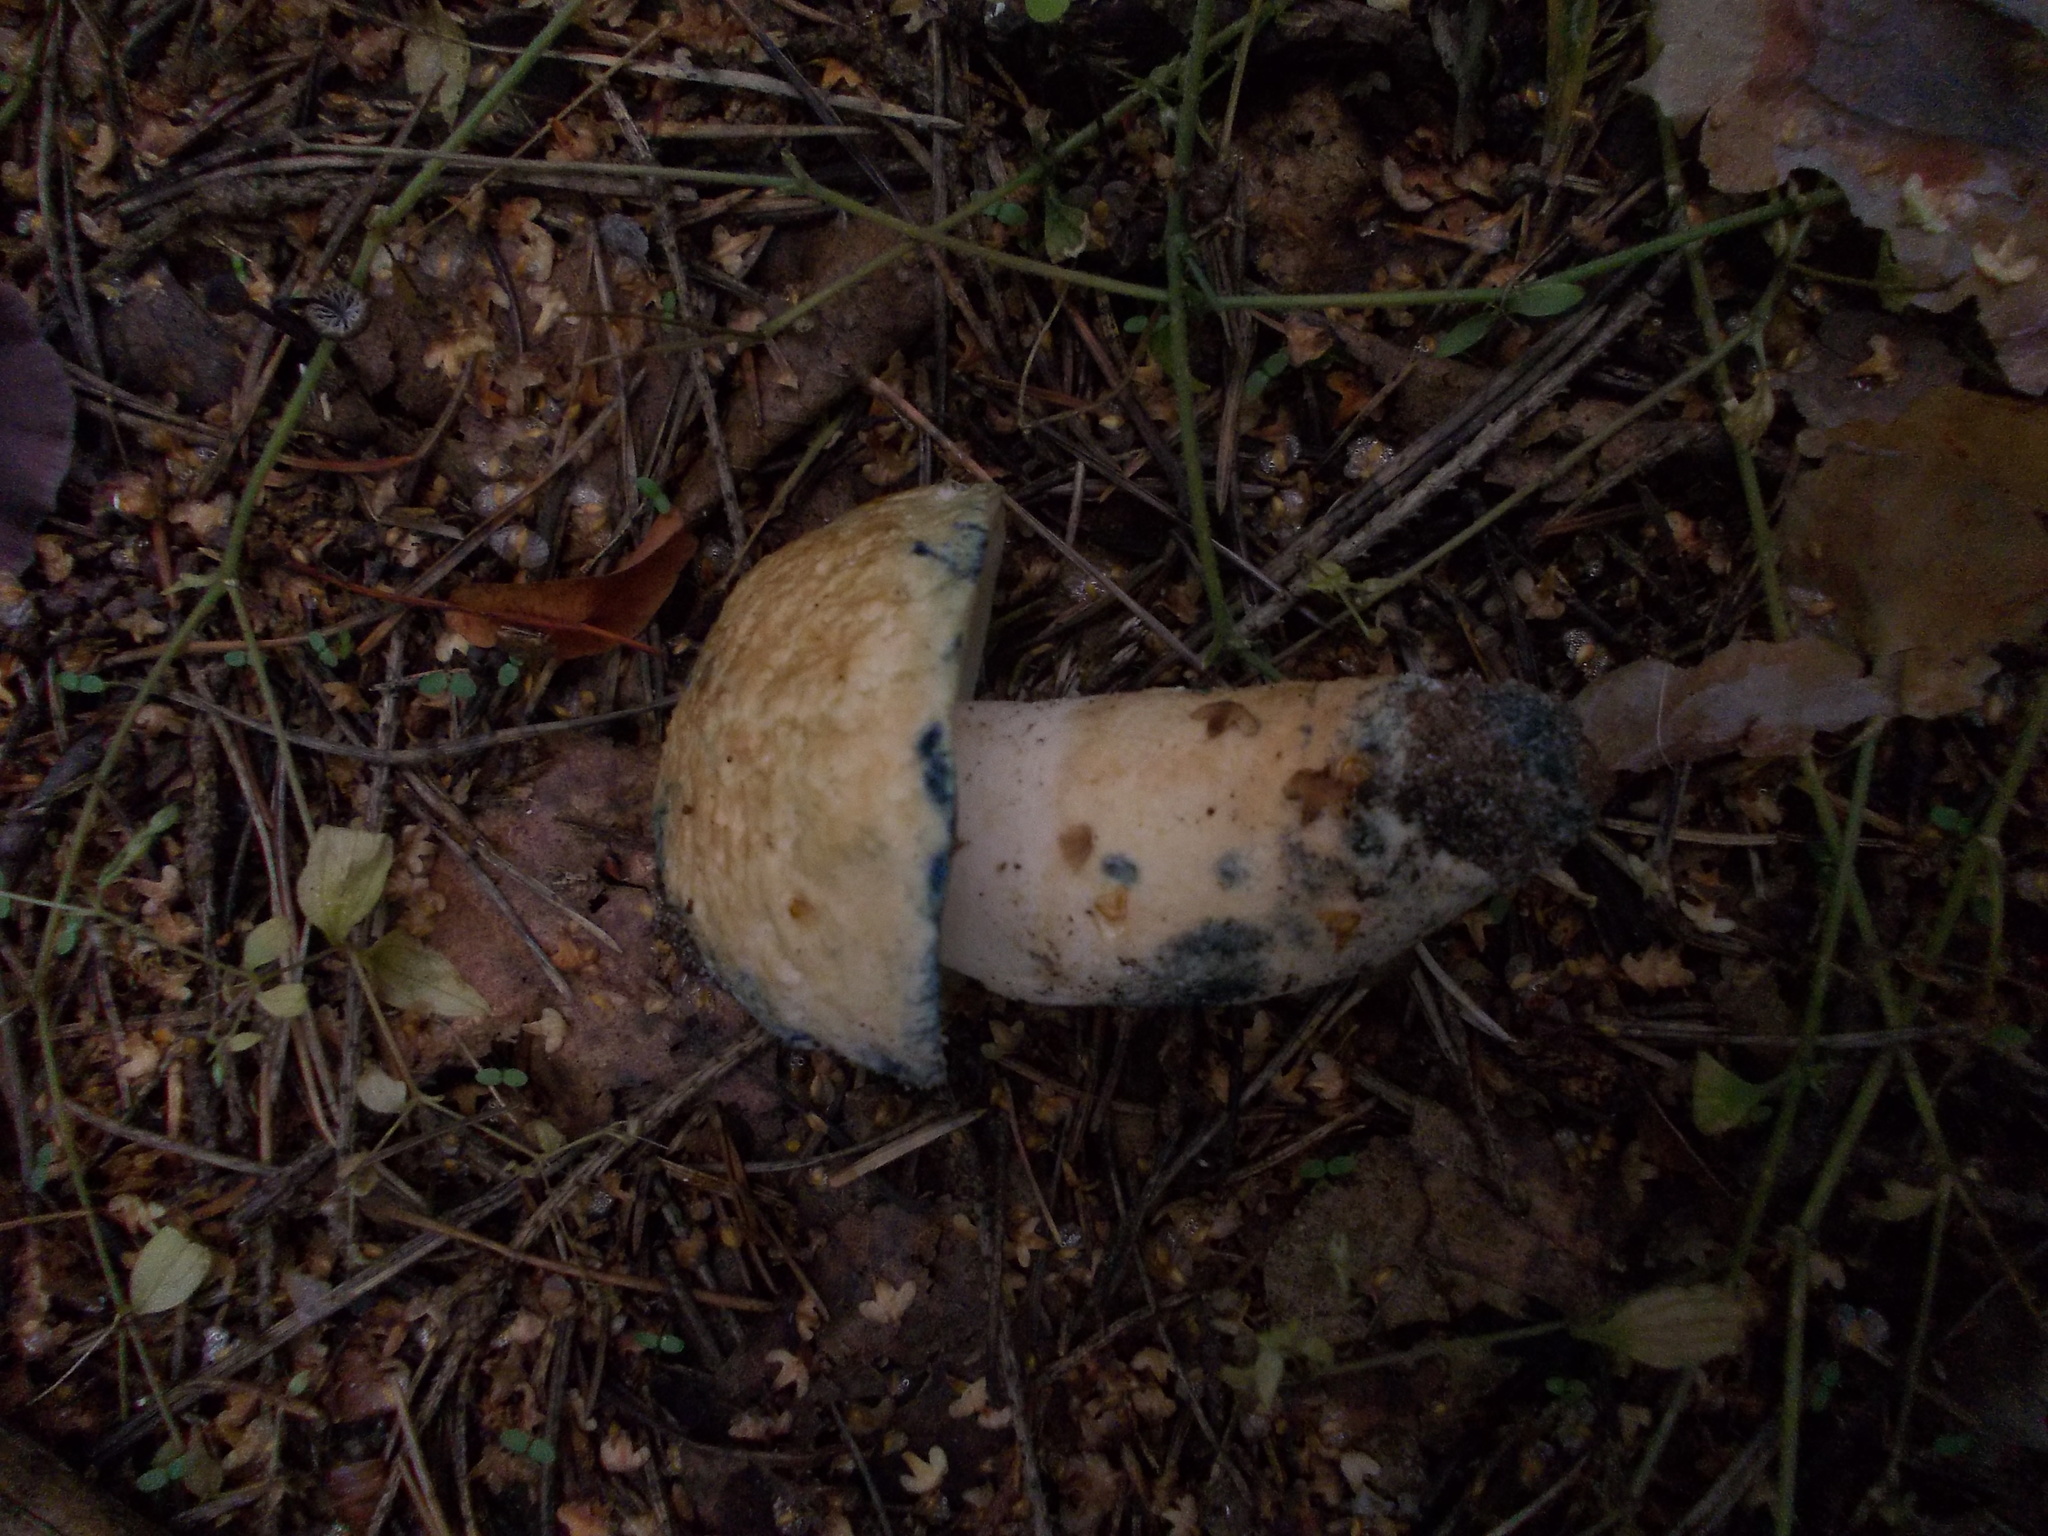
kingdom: Fungi
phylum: Basidiomycota
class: Agaricomycetes
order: Boletales
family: Gyroporaceae
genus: Gyroporus
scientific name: Gyroporus cyanescens
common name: Cornflower bolete
